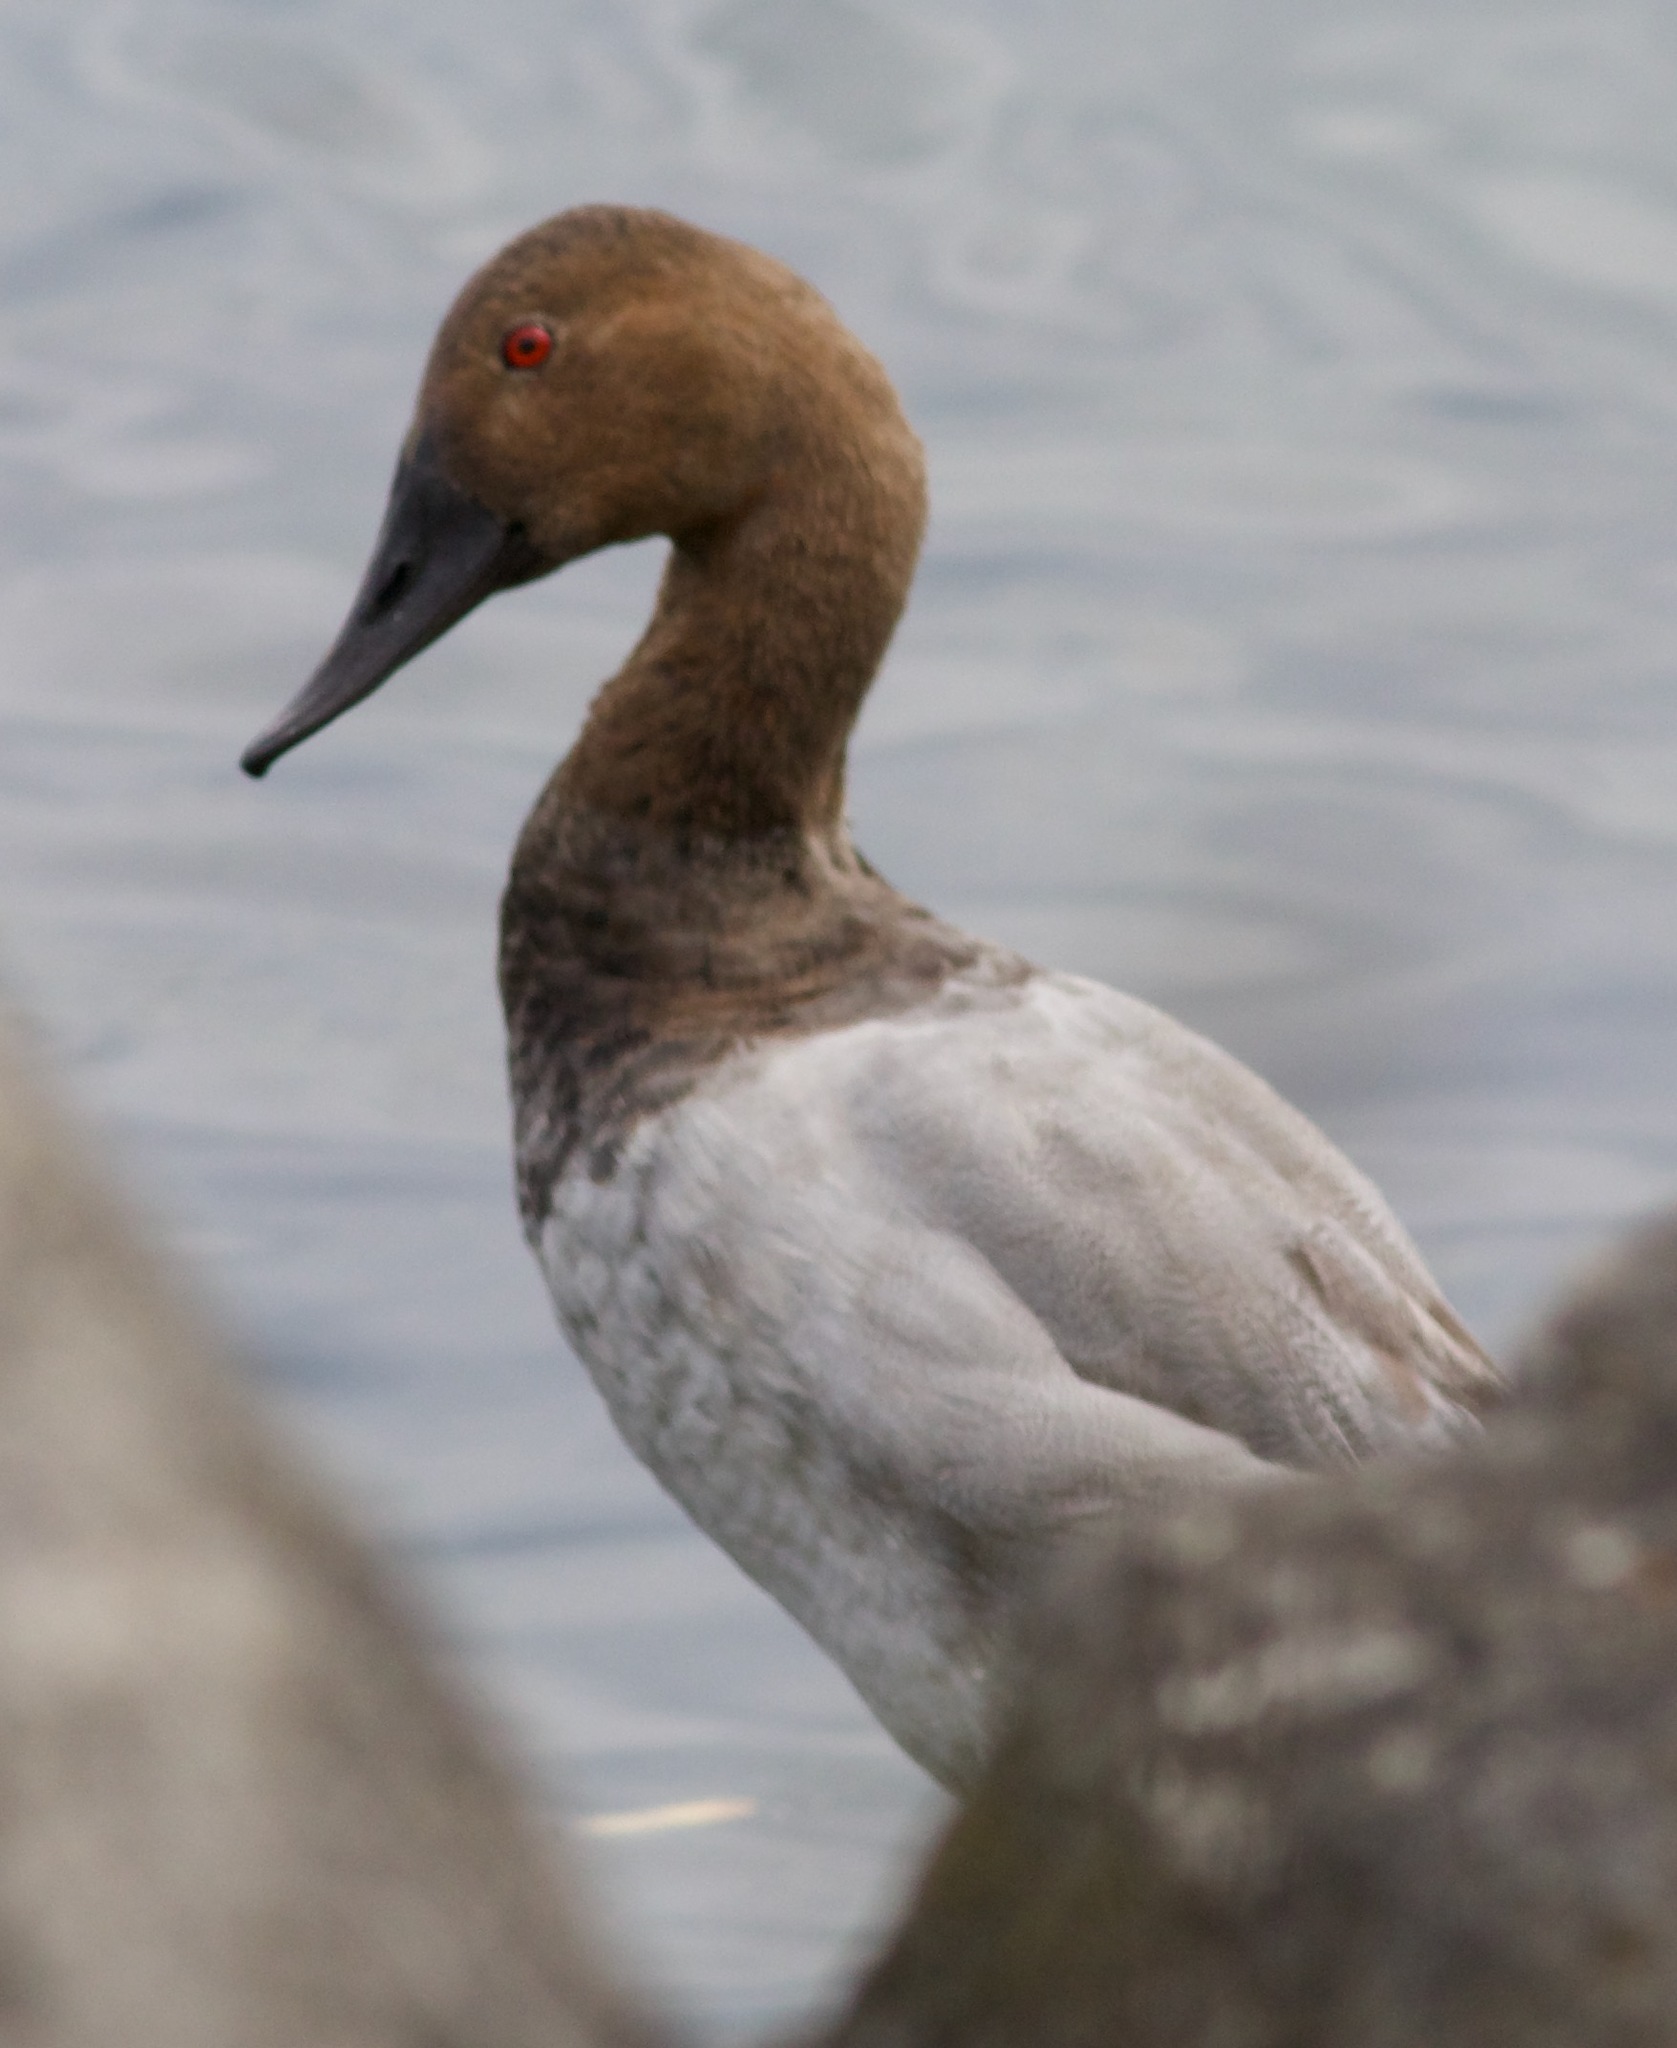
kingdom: Animalia
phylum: Chordata
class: Aves
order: Anseriformes
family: Anatidae
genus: Aythya
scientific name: Aythya valisineria
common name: Canvasback
